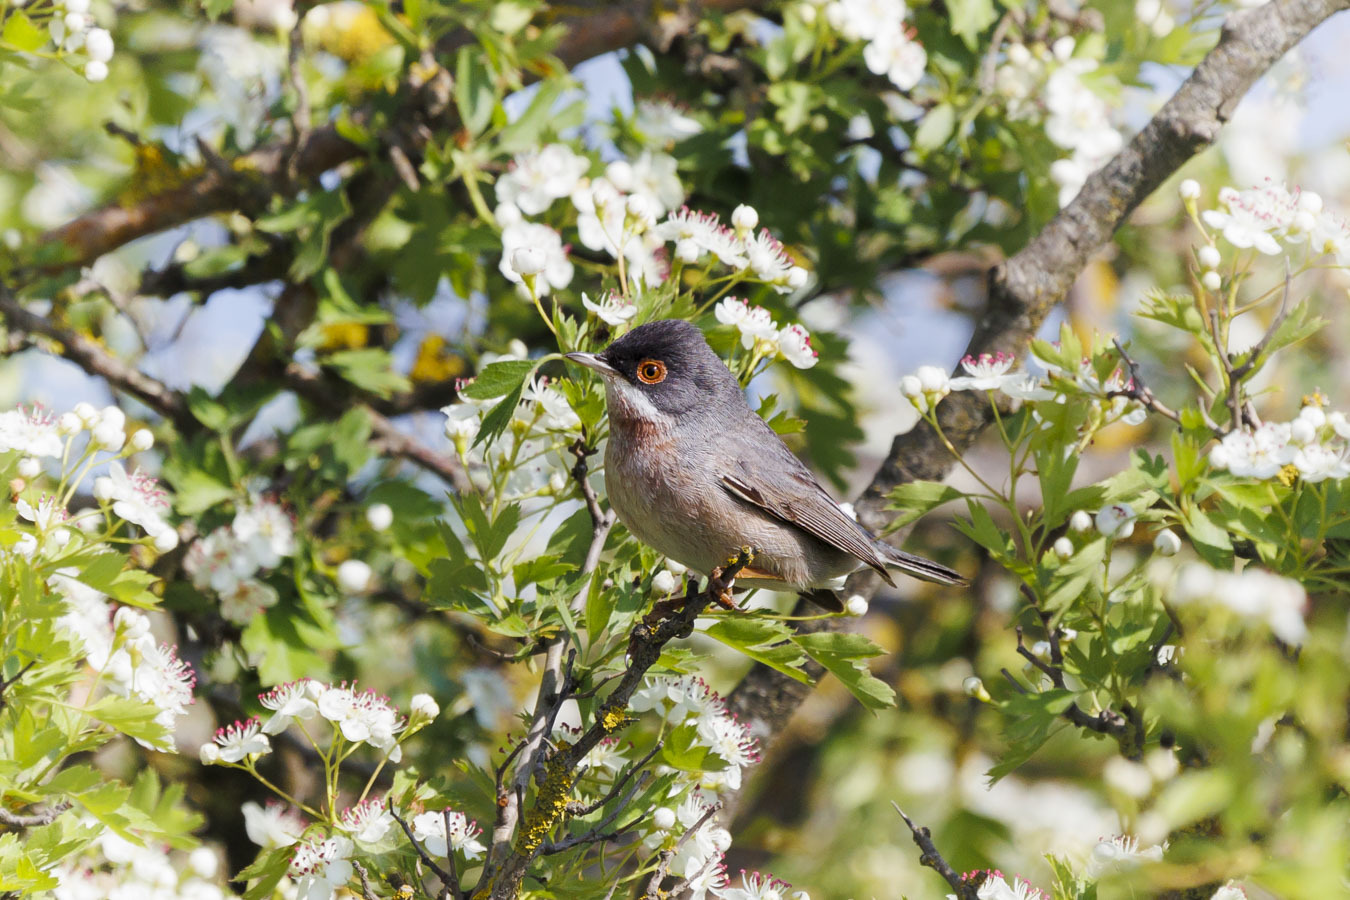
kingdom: Animalia
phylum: Chordata
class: Aves
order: Passeriformes
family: Sylviidae
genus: Sylvia
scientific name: Sylvia mystacea
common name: Menetries's warbler
